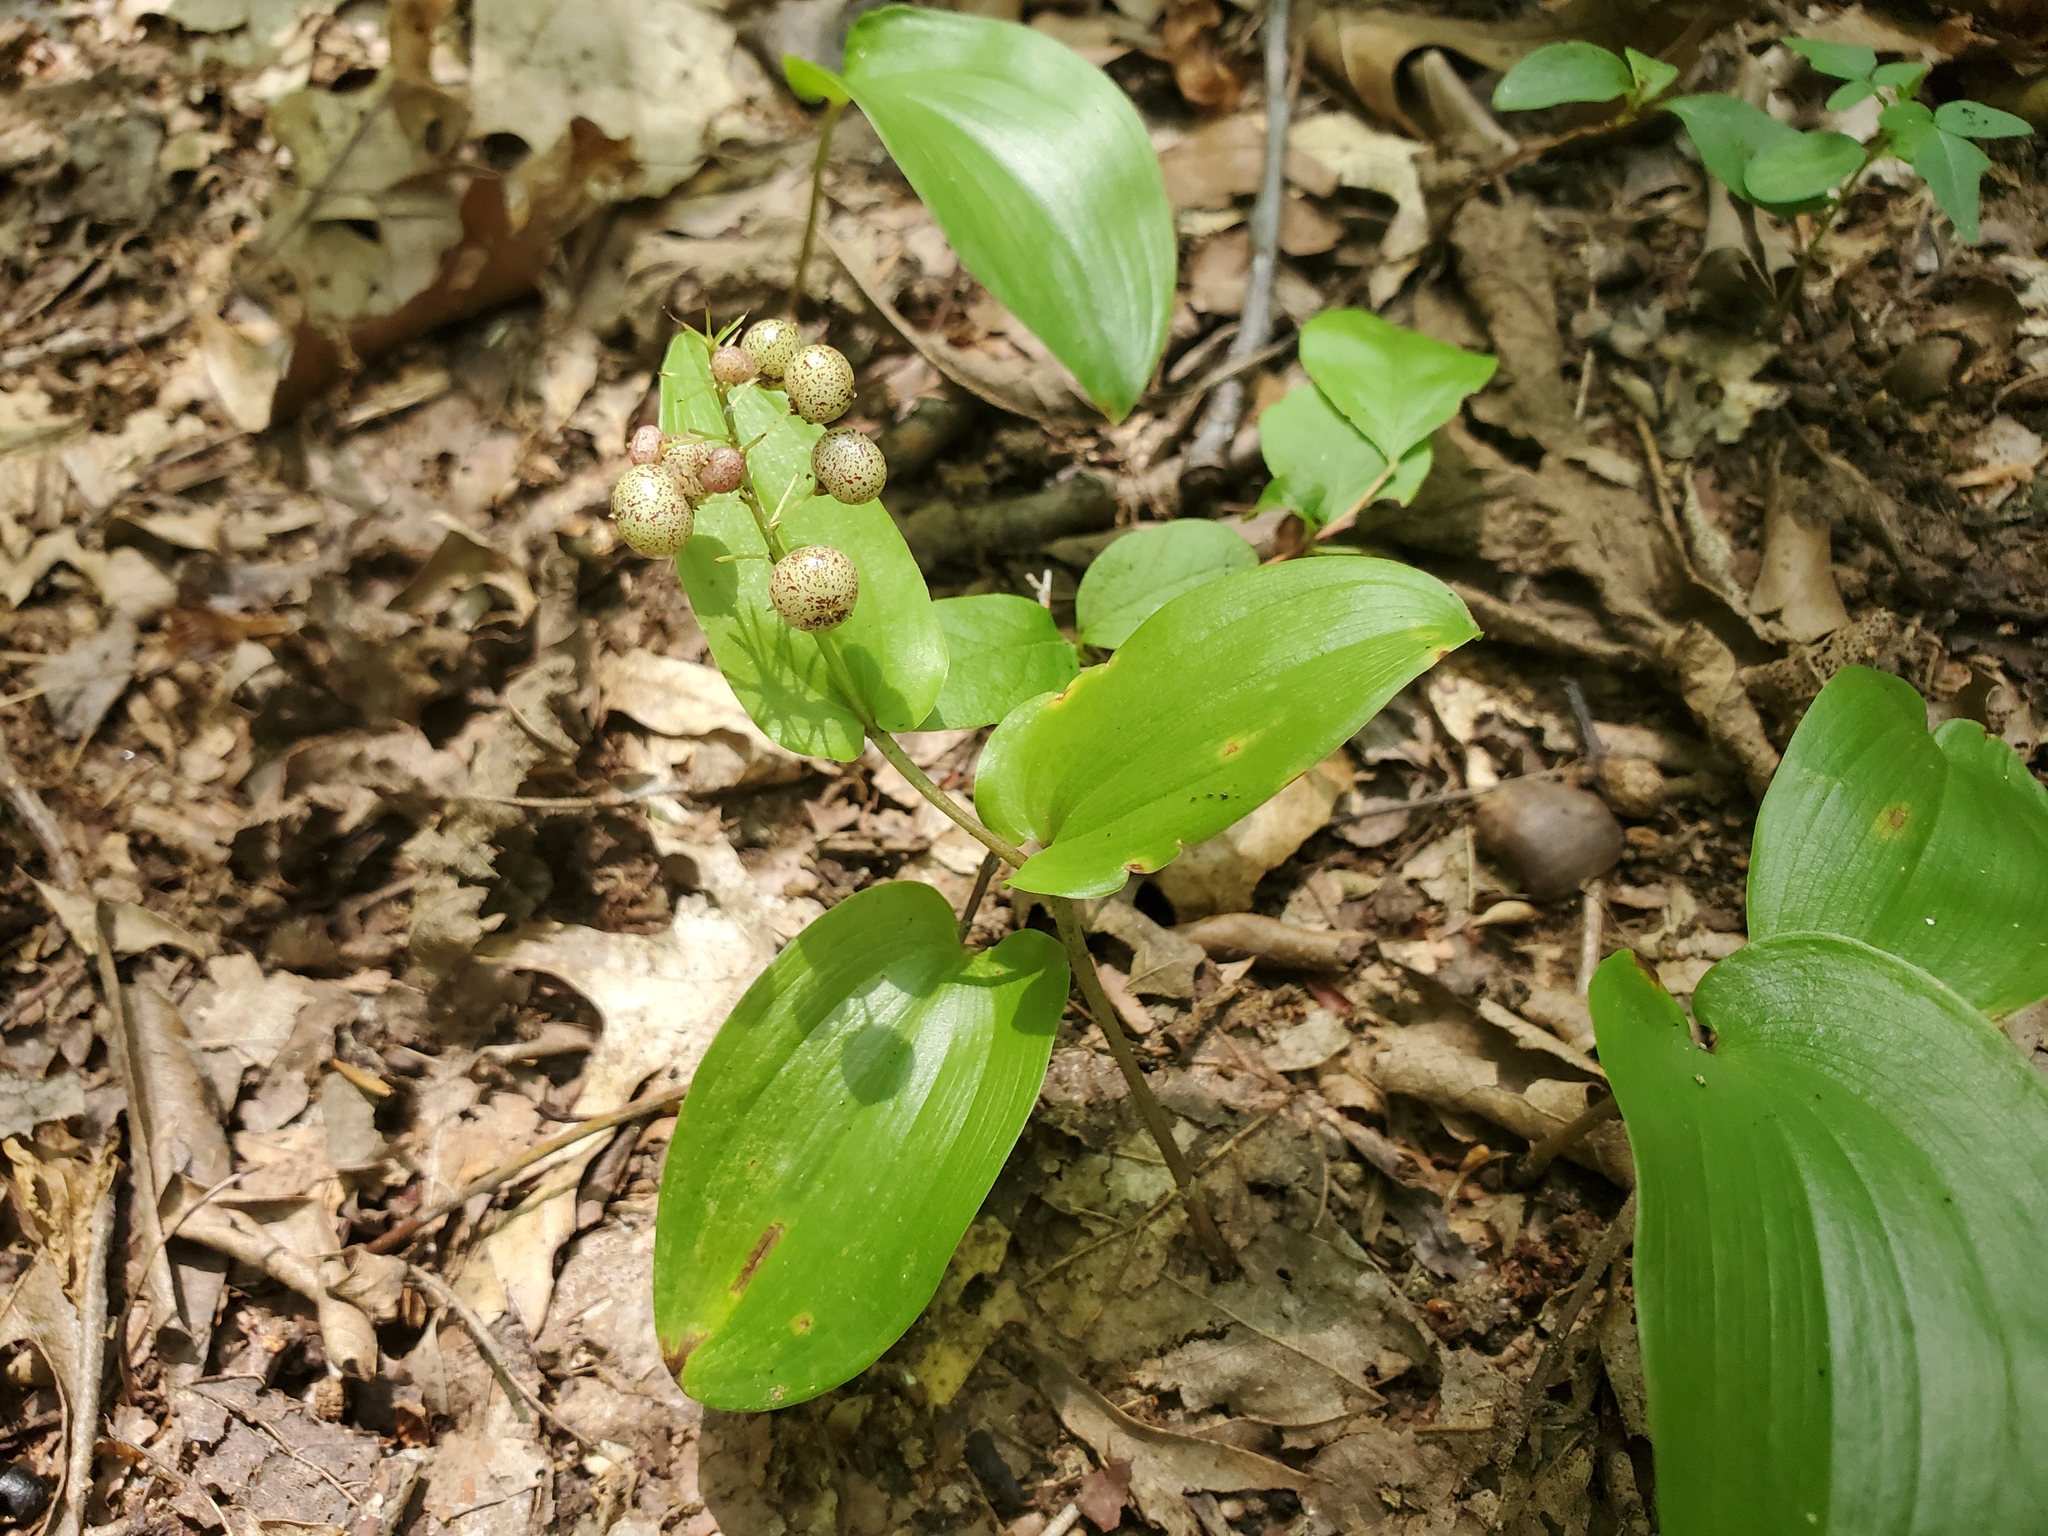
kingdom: Plantae
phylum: Tracheophyta
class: Liliopsida
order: Asparagales
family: Asparagaceae
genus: Maianthemum
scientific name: Maianthemum canadense
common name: False lily-of-the-valley
